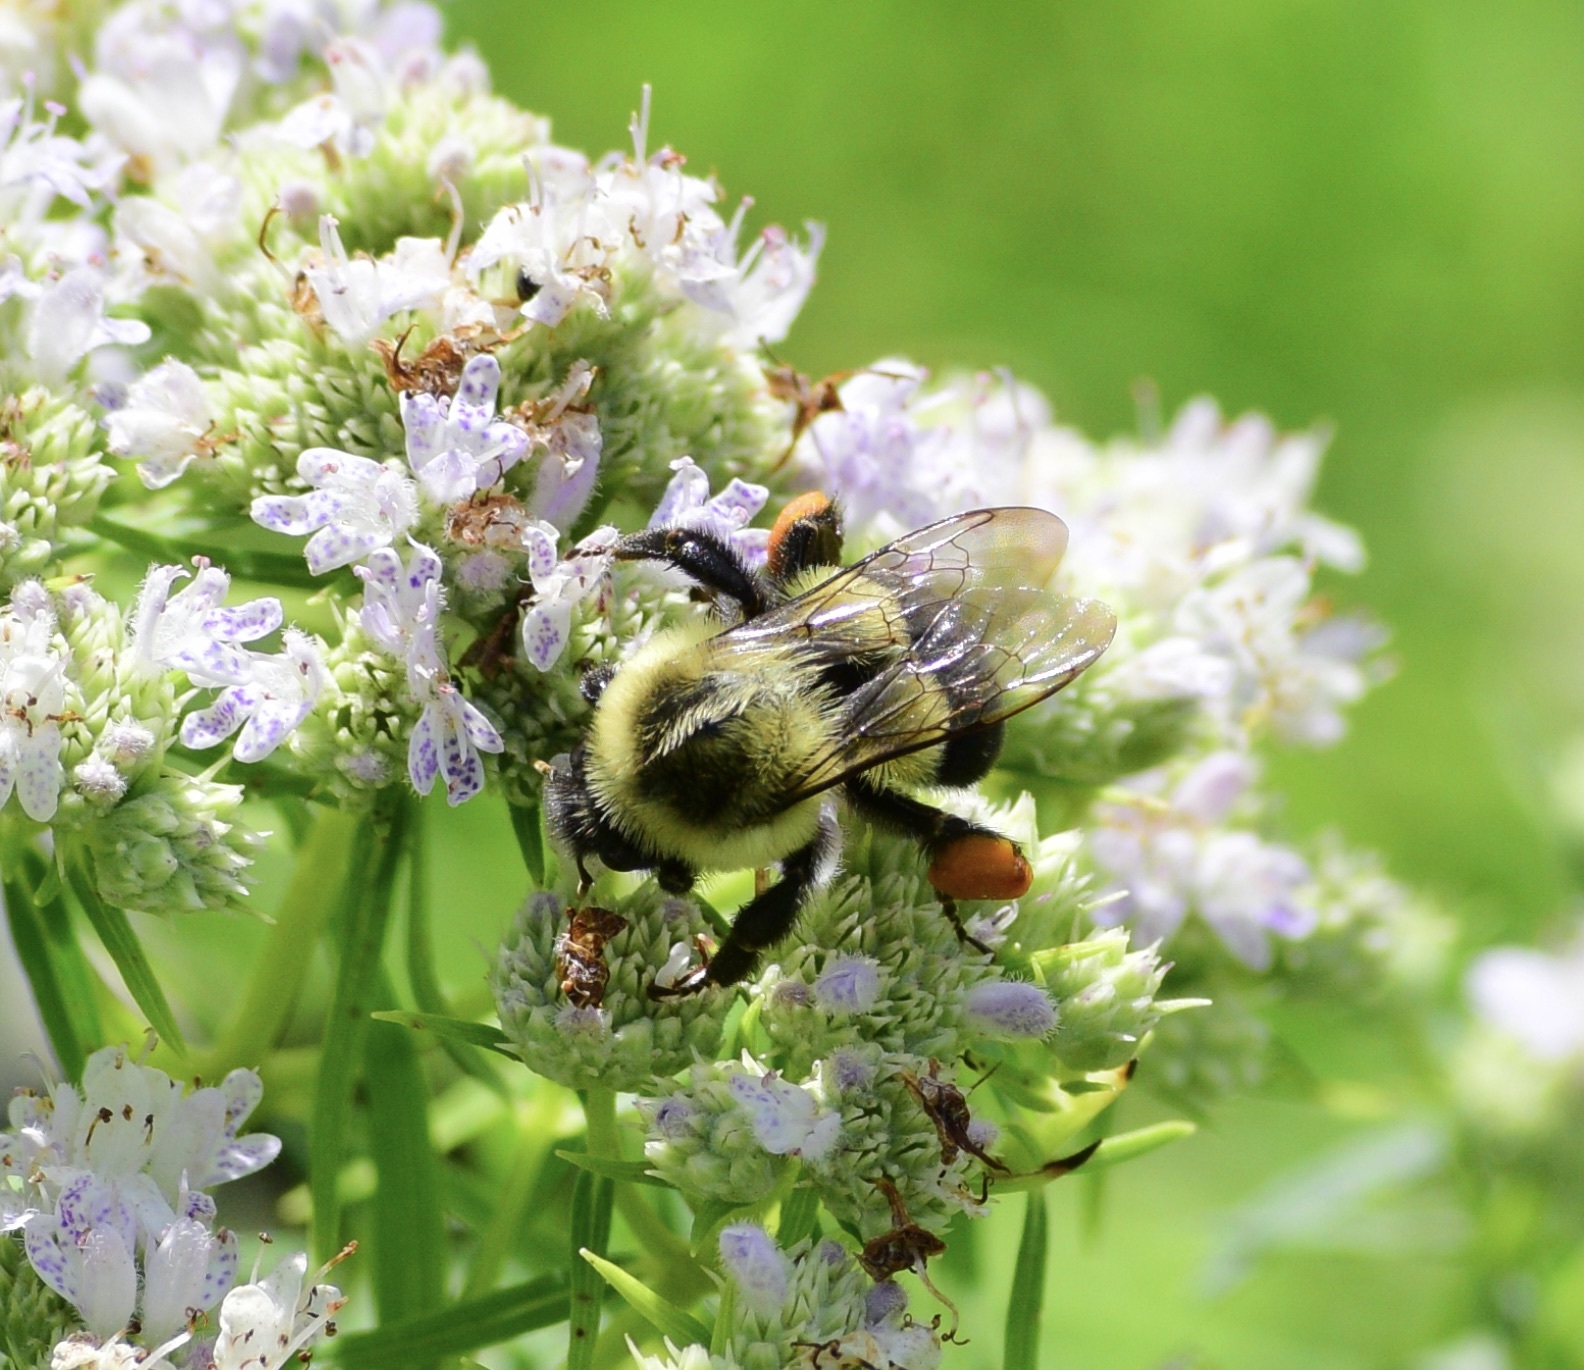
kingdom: Animalia
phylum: Arthropoda
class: Insecta
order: Hymenoptera
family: Apidae
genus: Bombus
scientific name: Bombus impatiens
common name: Common eastern bumble bee
